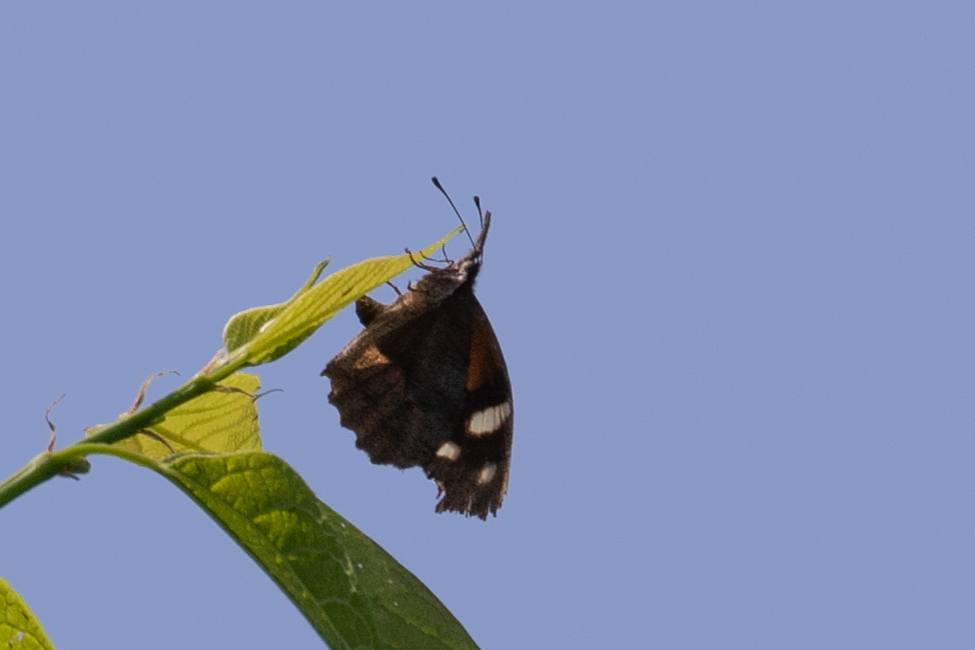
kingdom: Animalia
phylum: Arthropoda
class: Insecta
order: Lepidoptera
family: Nymphalidae
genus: Libytheana
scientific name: Libytheana carinenta
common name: American snout
